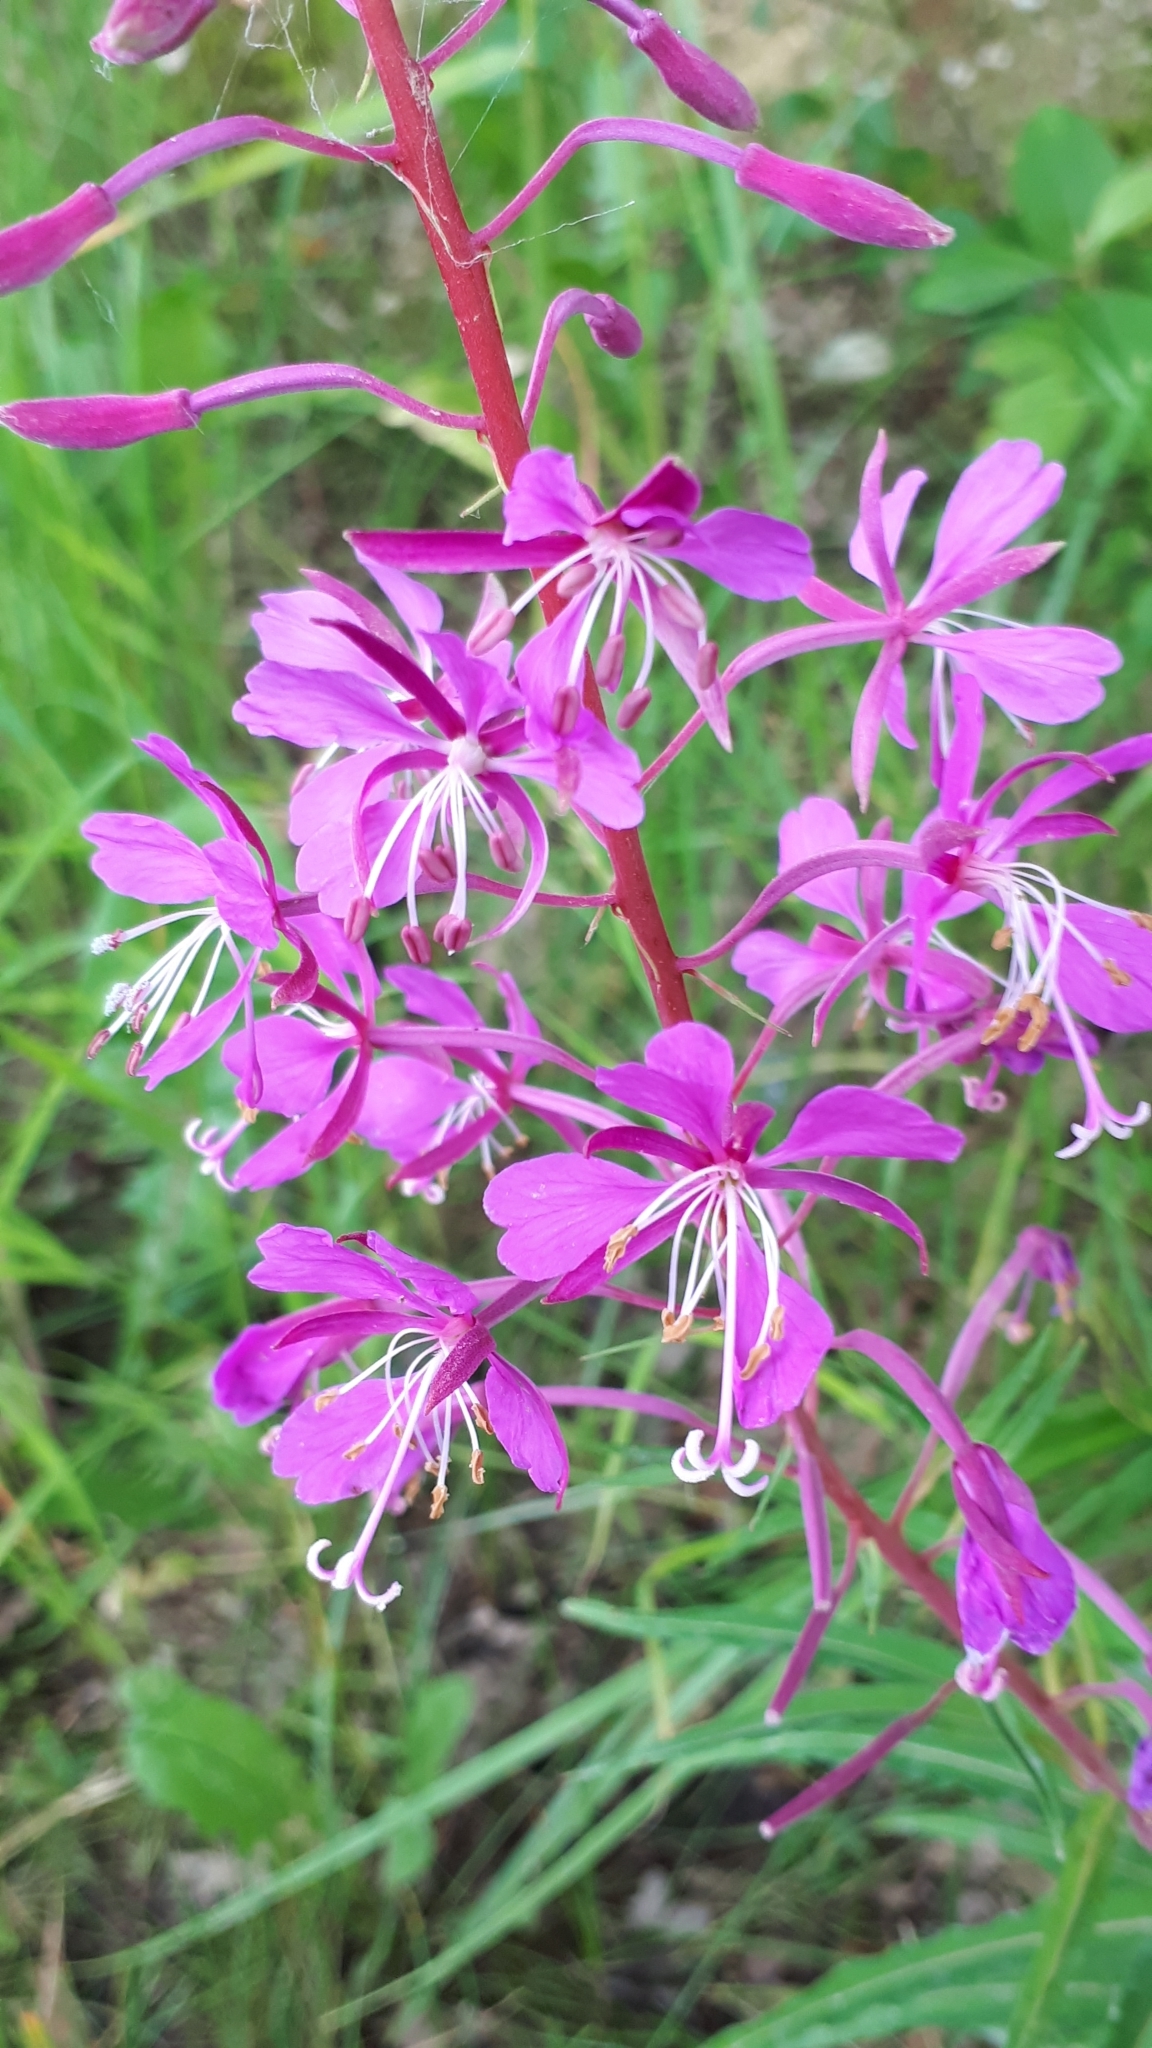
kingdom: Plantae
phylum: Tracheophyta
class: Magnoliopsida
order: Myrtales
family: Onagraceae
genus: Chamaenerion
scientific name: Chamaenerion angustifolium
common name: Fireweed
